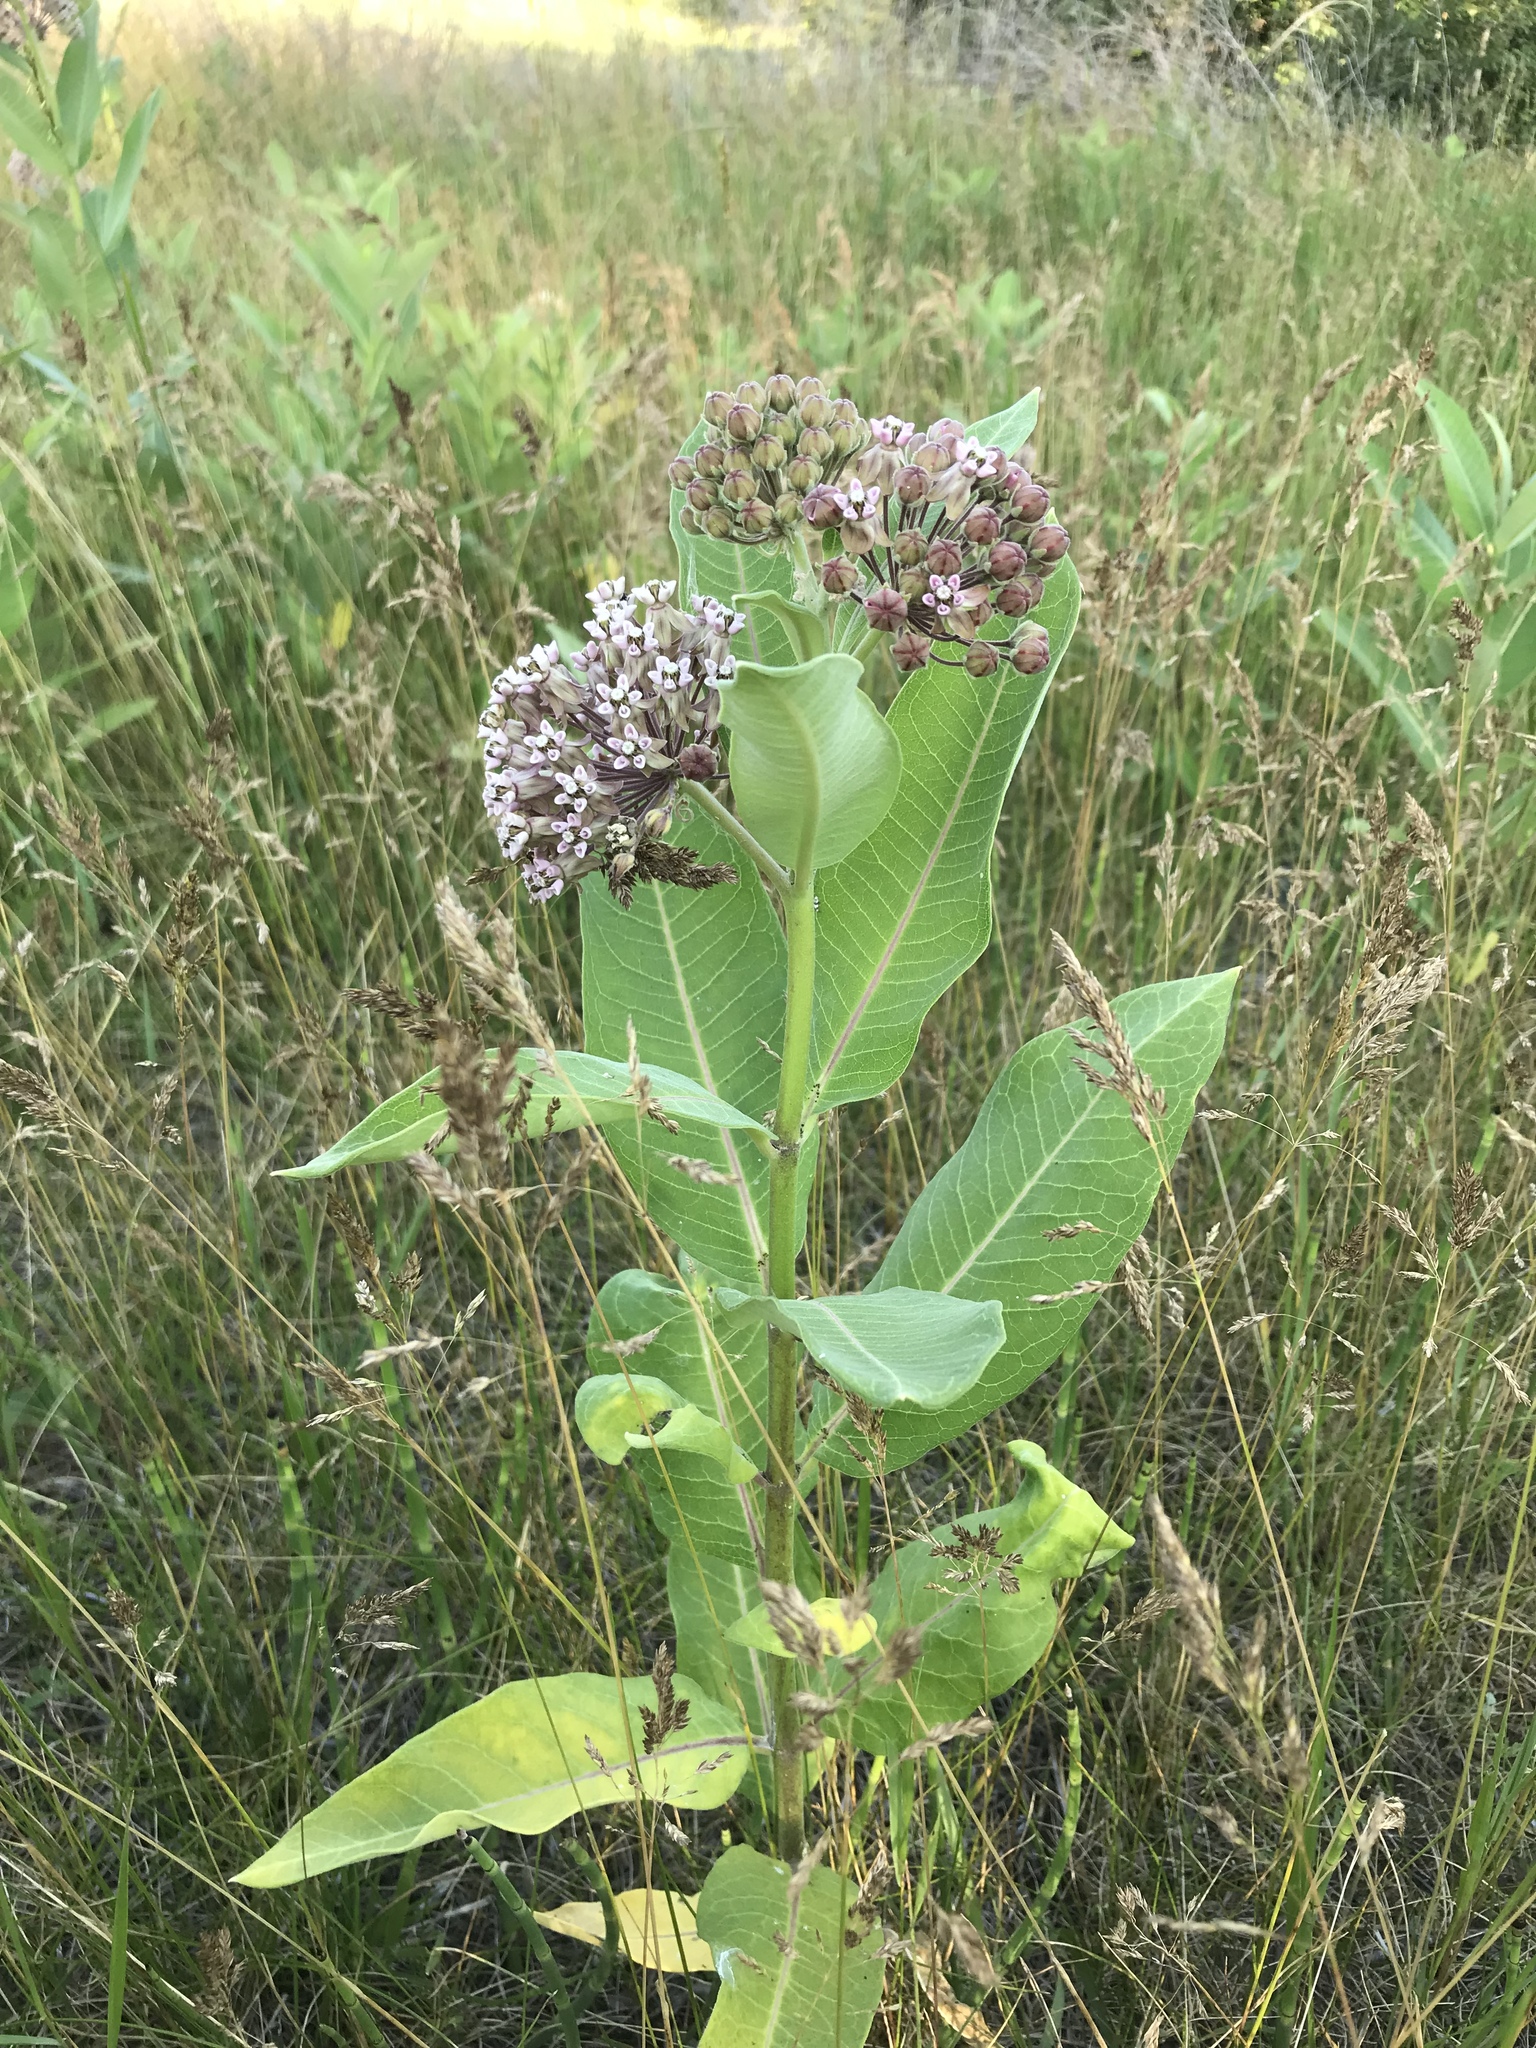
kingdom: Plantae
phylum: Tracheophyta
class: Magnoliopsida
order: Gentianales
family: Apocynaceae
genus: Asclepias
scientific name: Asclepias syriaca
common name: Common milkweed
